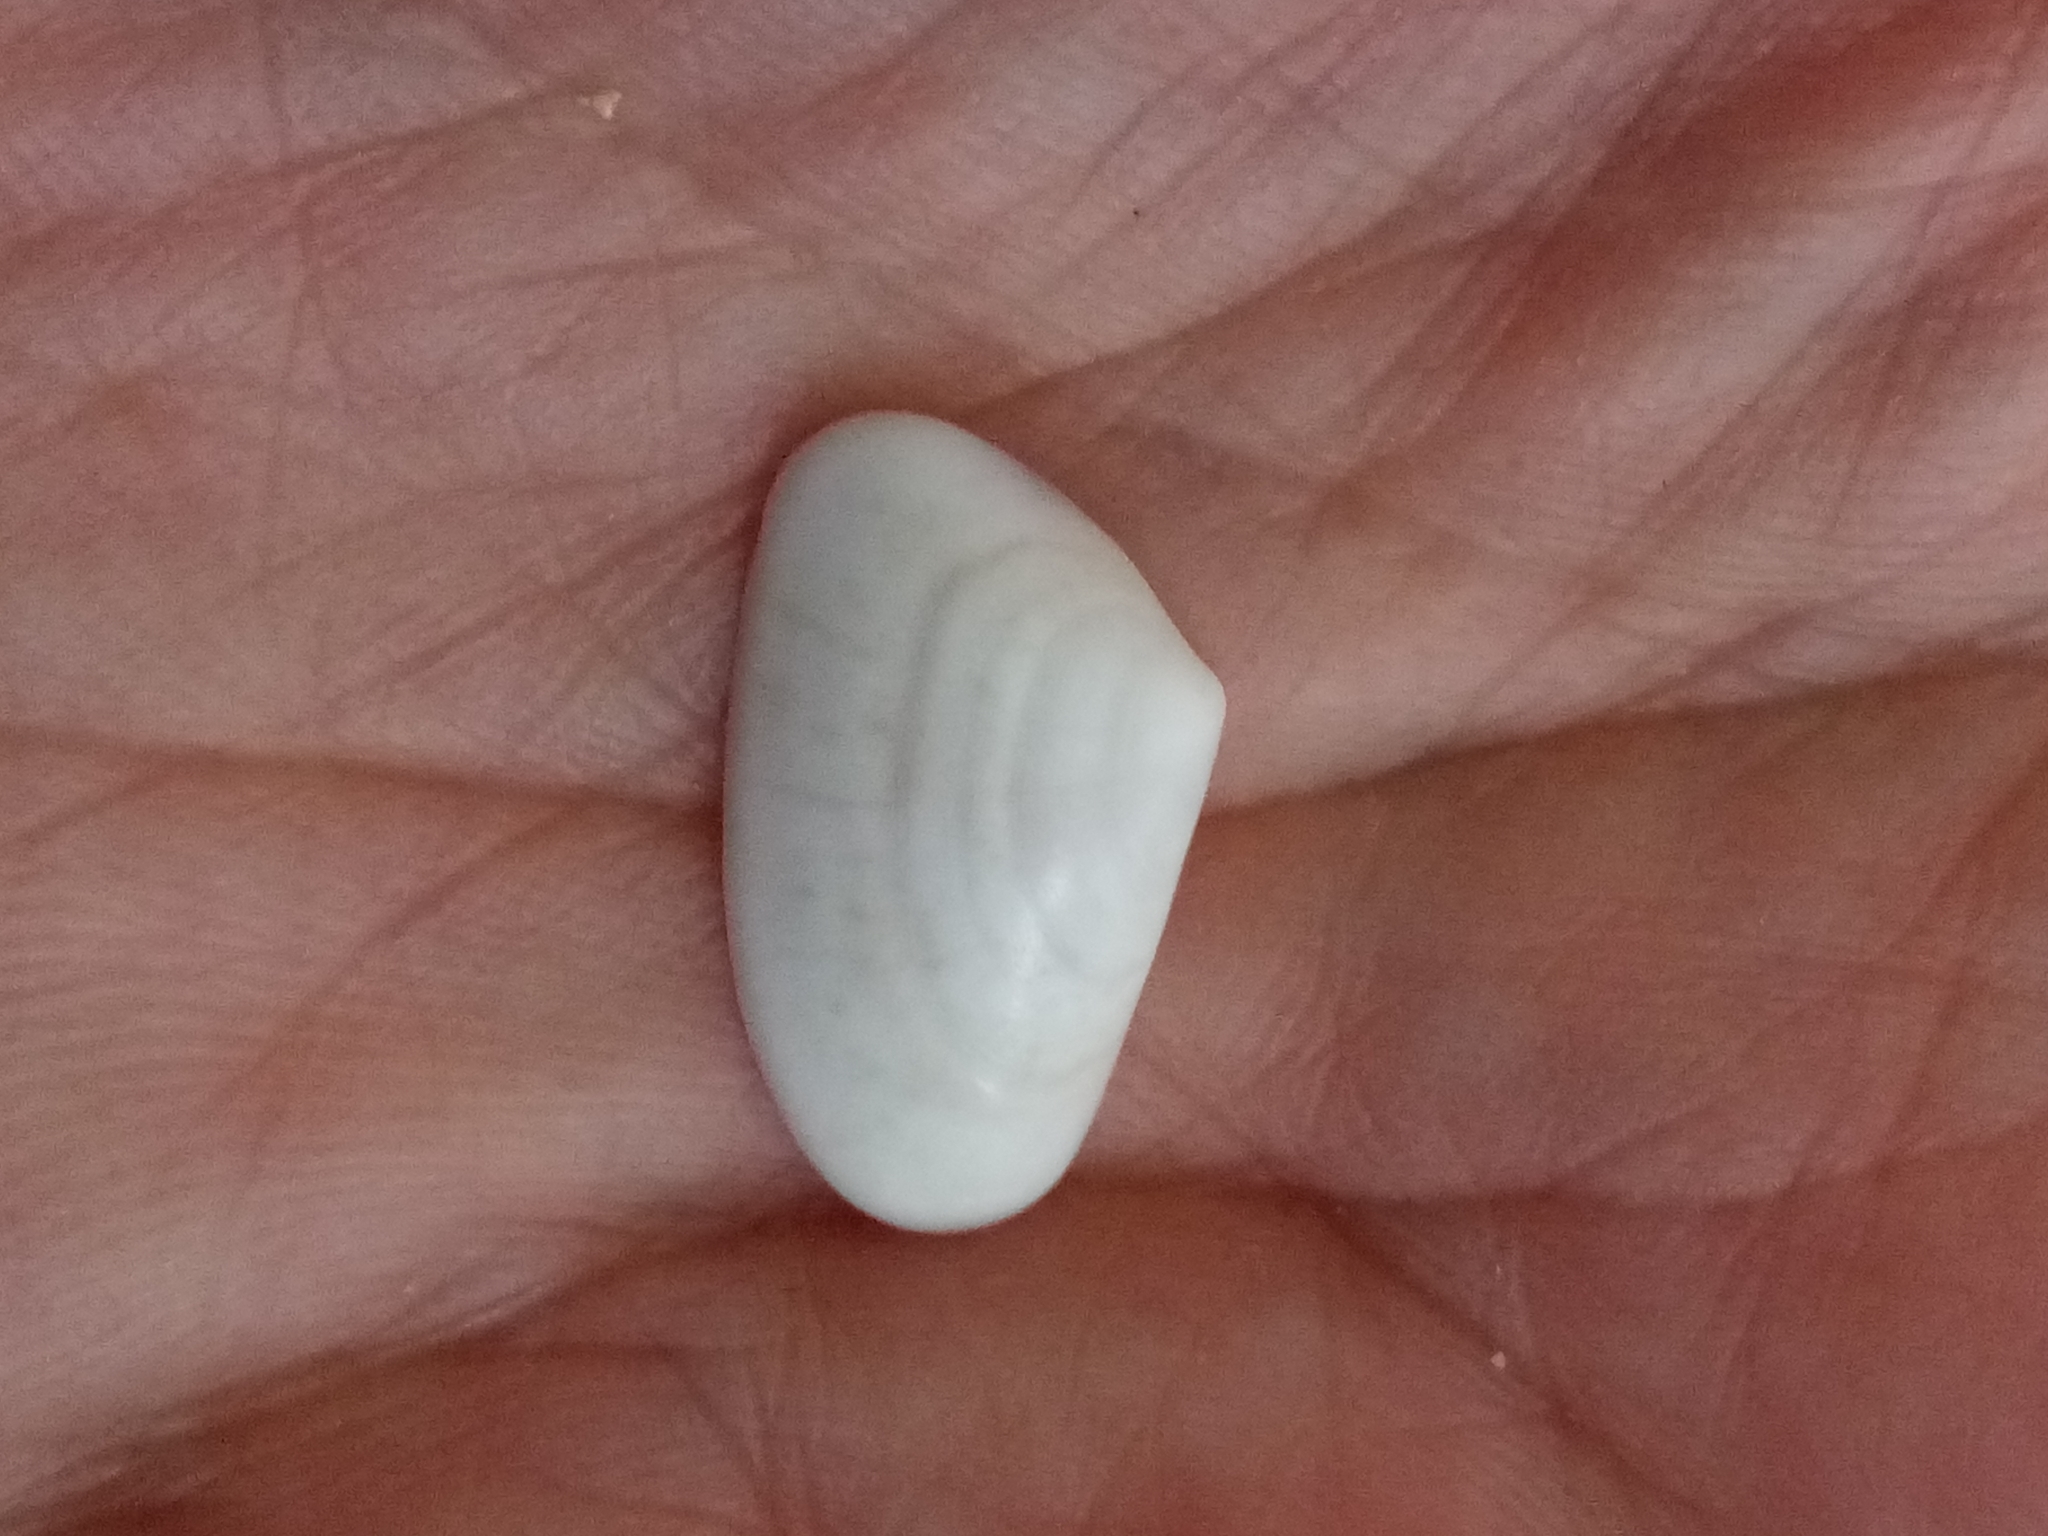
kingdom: Animalia
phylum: Mollusca
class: Bivalvia
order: Cardiida
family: Donacidae
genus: Donax
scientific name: Donax trunculus
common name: Truncate donax
